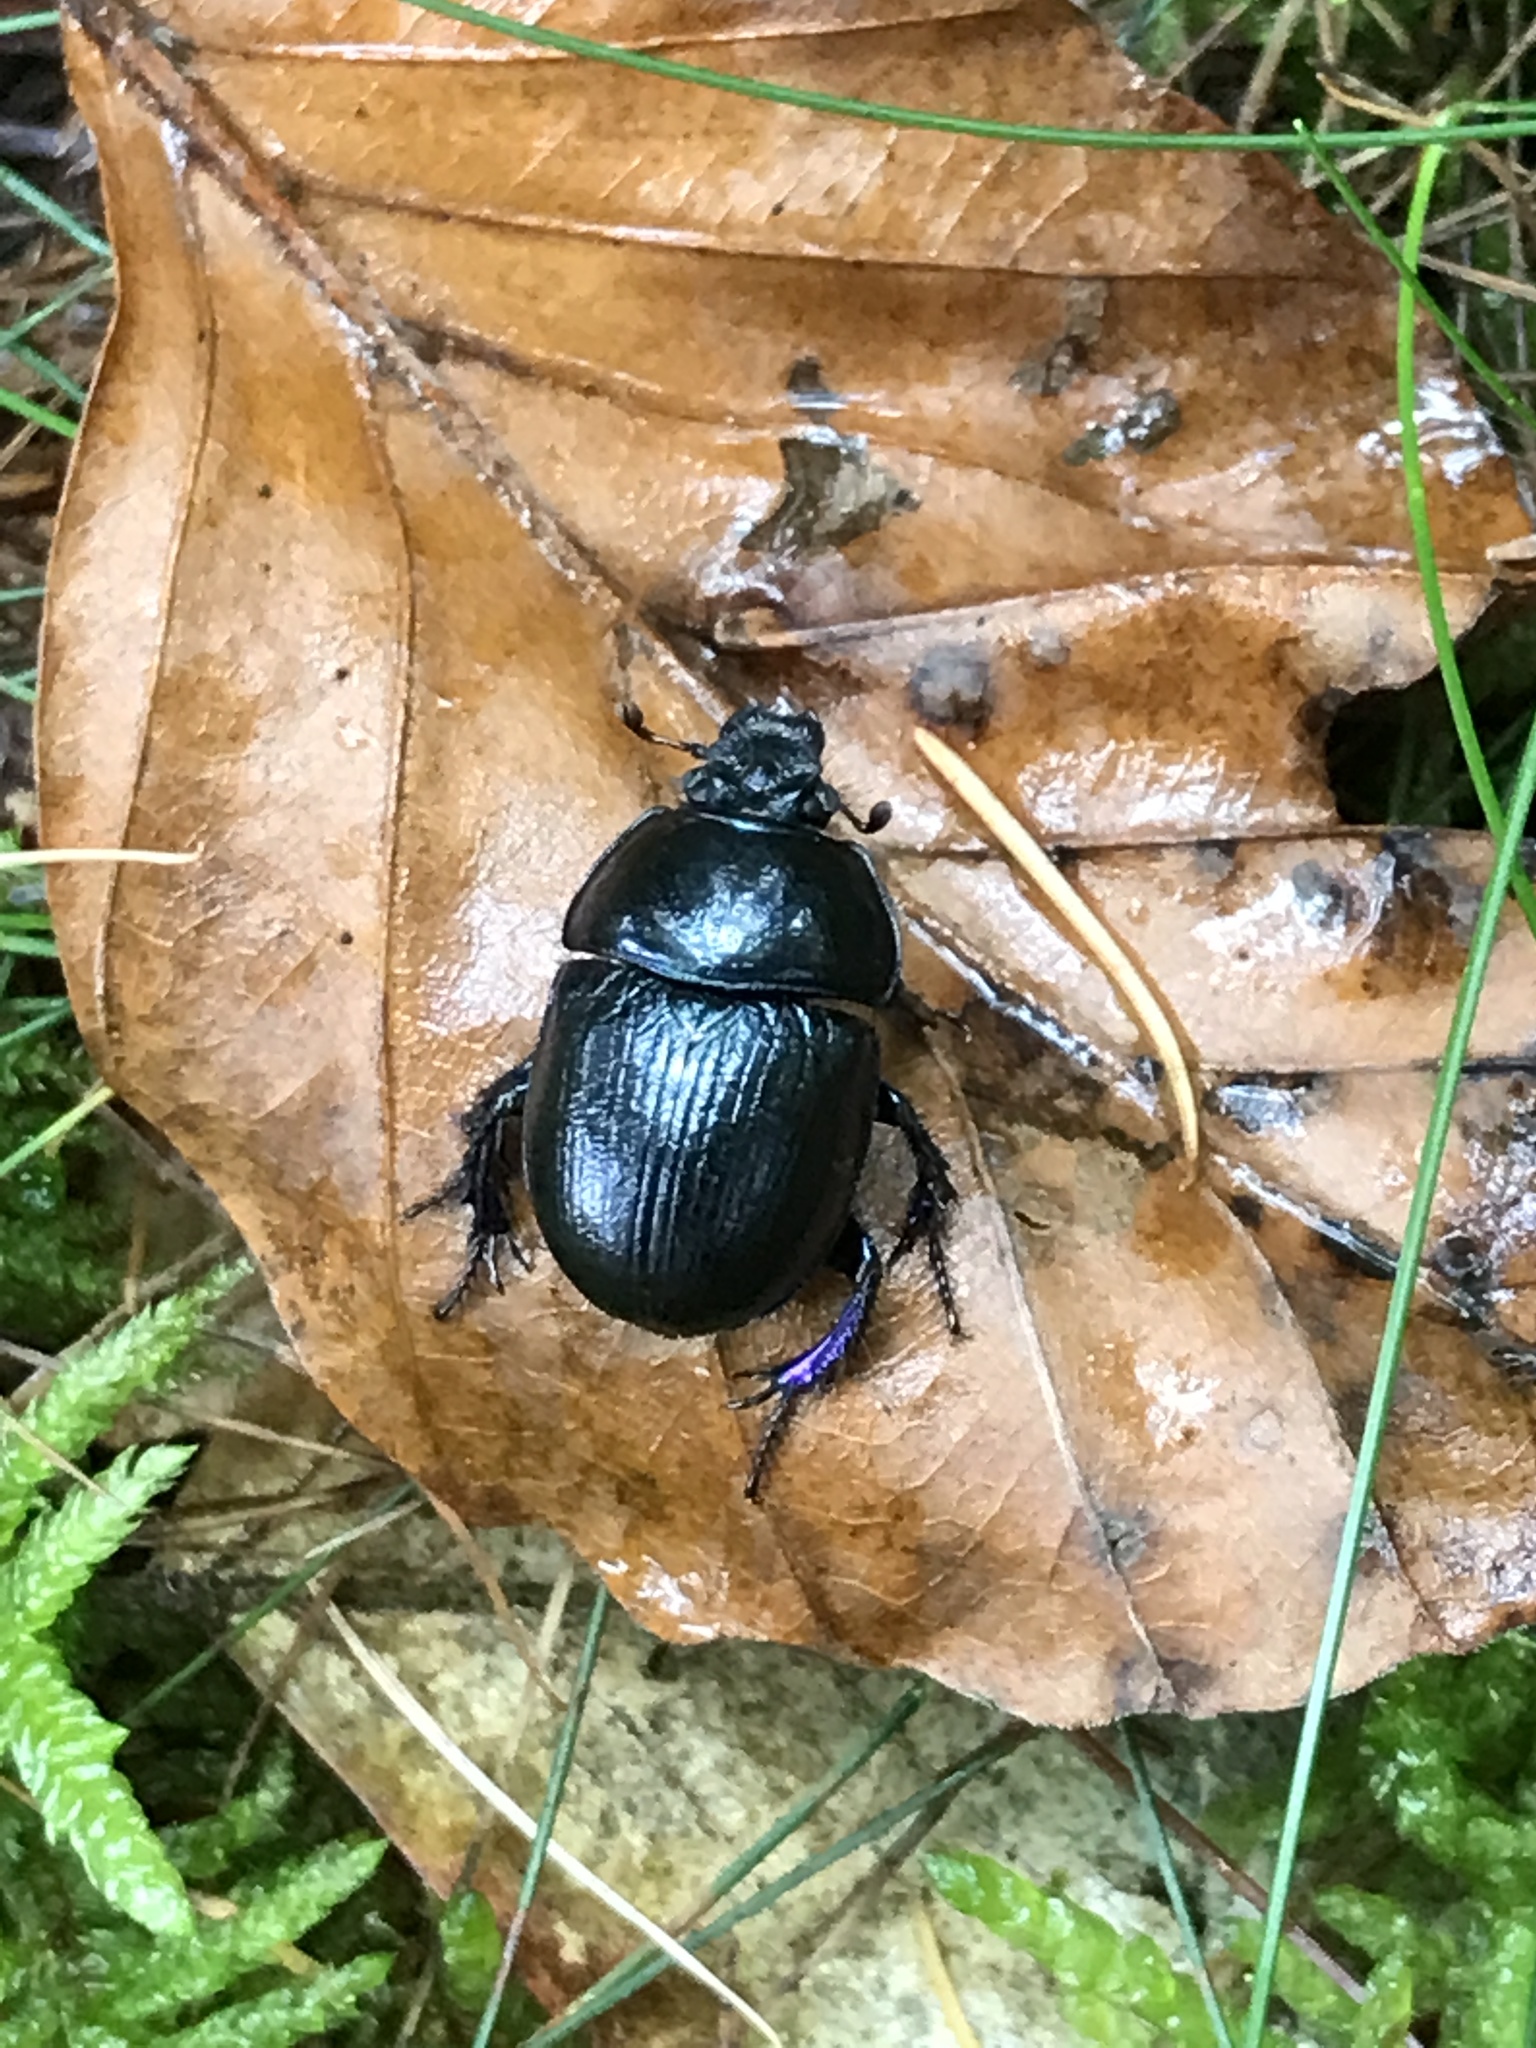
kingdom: Animalia
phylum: Arthropoda
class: Insecta
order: Coleoptera
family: Geotrupidae
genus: Anoplotrupes
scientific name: Anoplotrupes stercorosus
